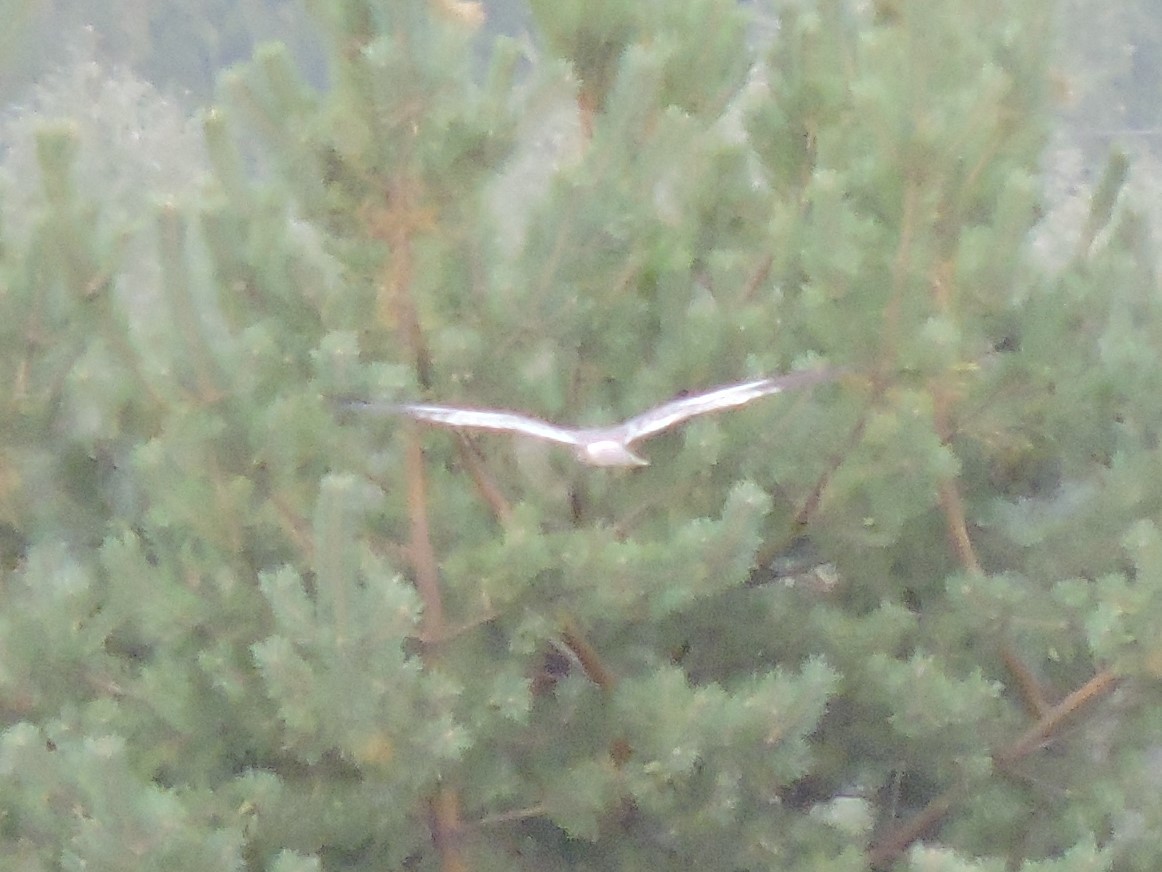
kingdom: Animalia
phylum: Chordata
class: Aves
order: Accipitriformes
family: Accipitridae
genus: Circus
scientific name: Circus pygargus
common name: Montagu's harrier
